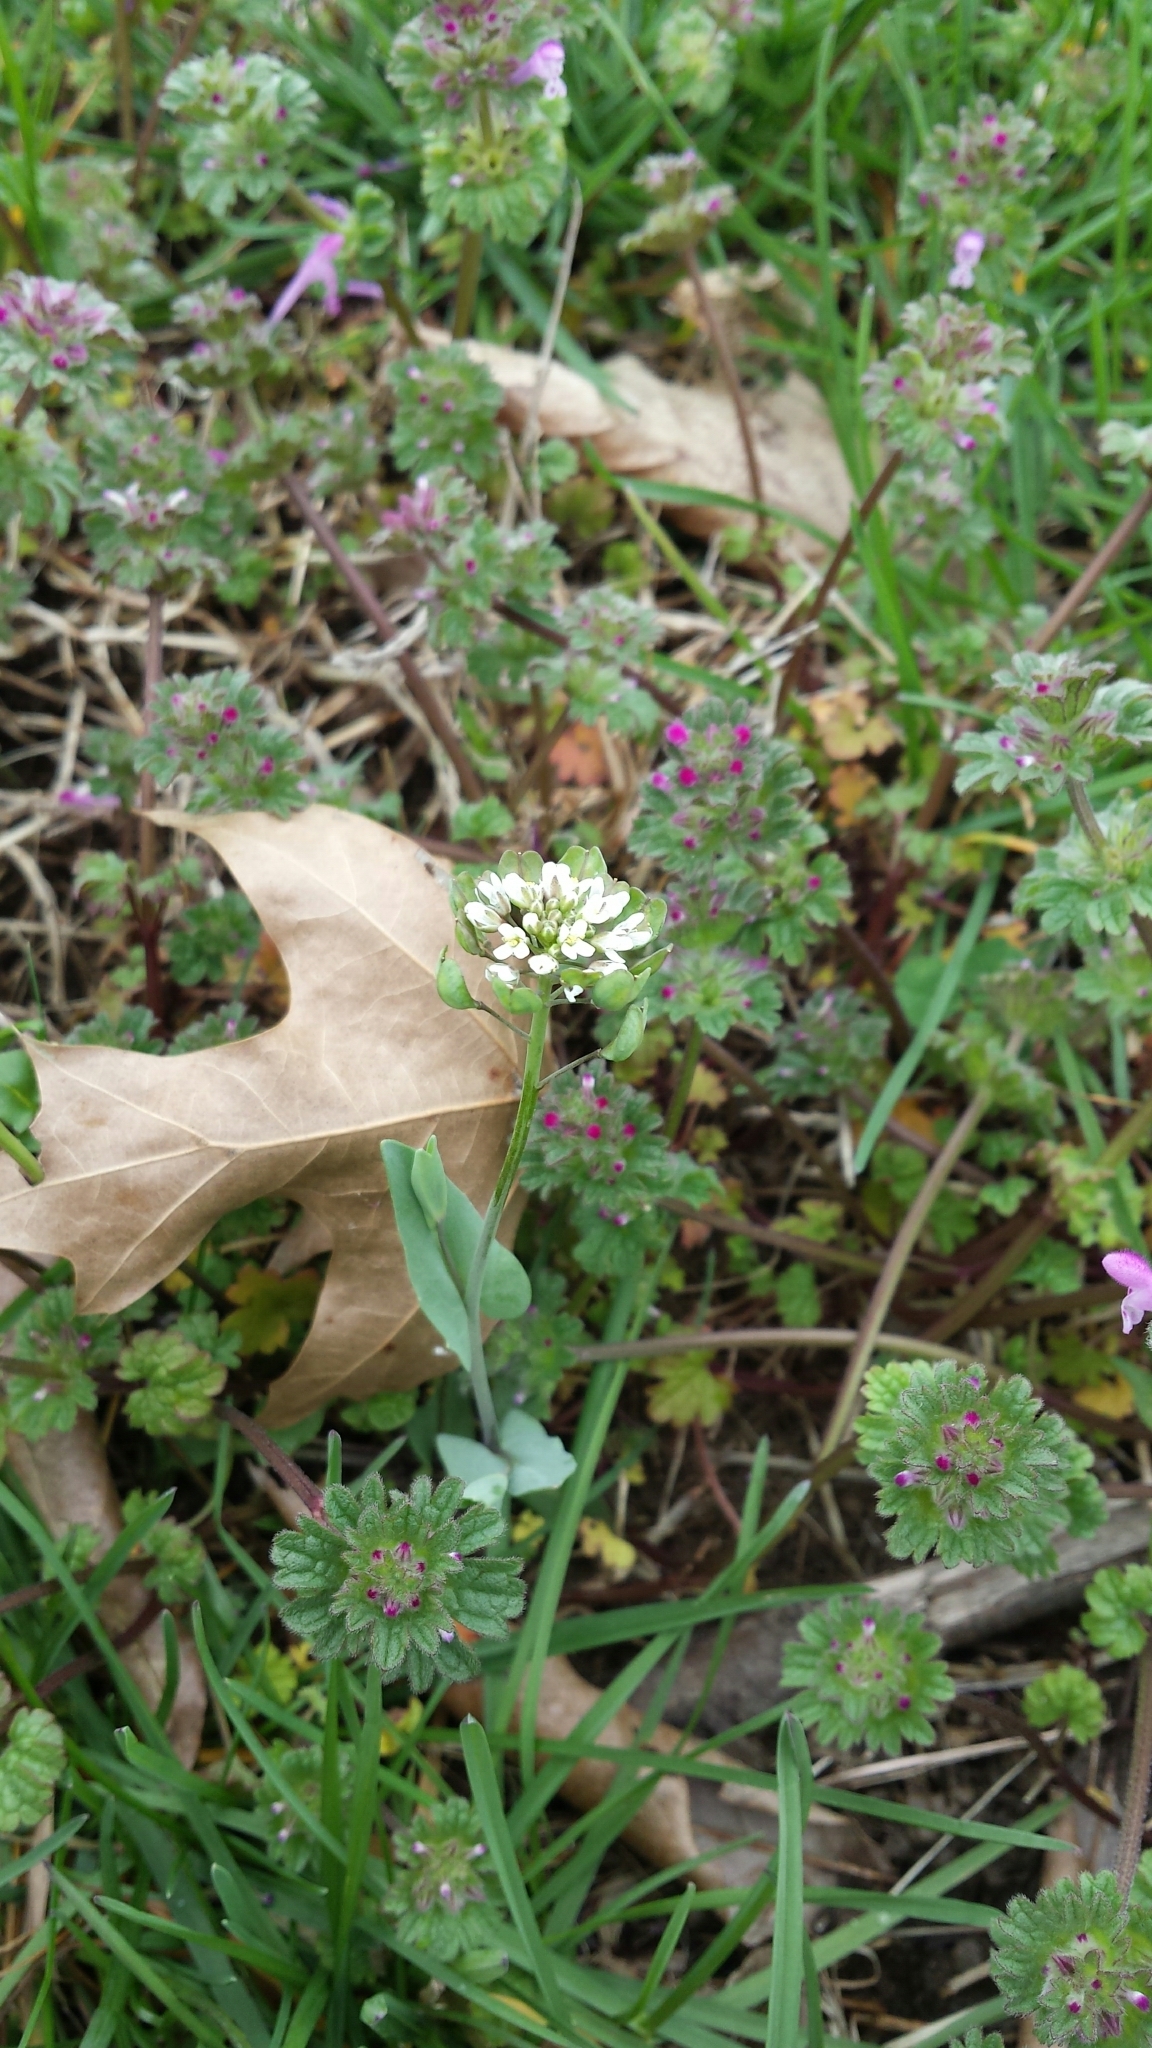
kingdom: Plantae
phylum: Tracheophyta
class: Magnoliopsida
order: Brassicales
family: Brassicaceae
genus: Noccaea
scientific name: Noccaea perfoliata
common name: Perfoliate pennycress
